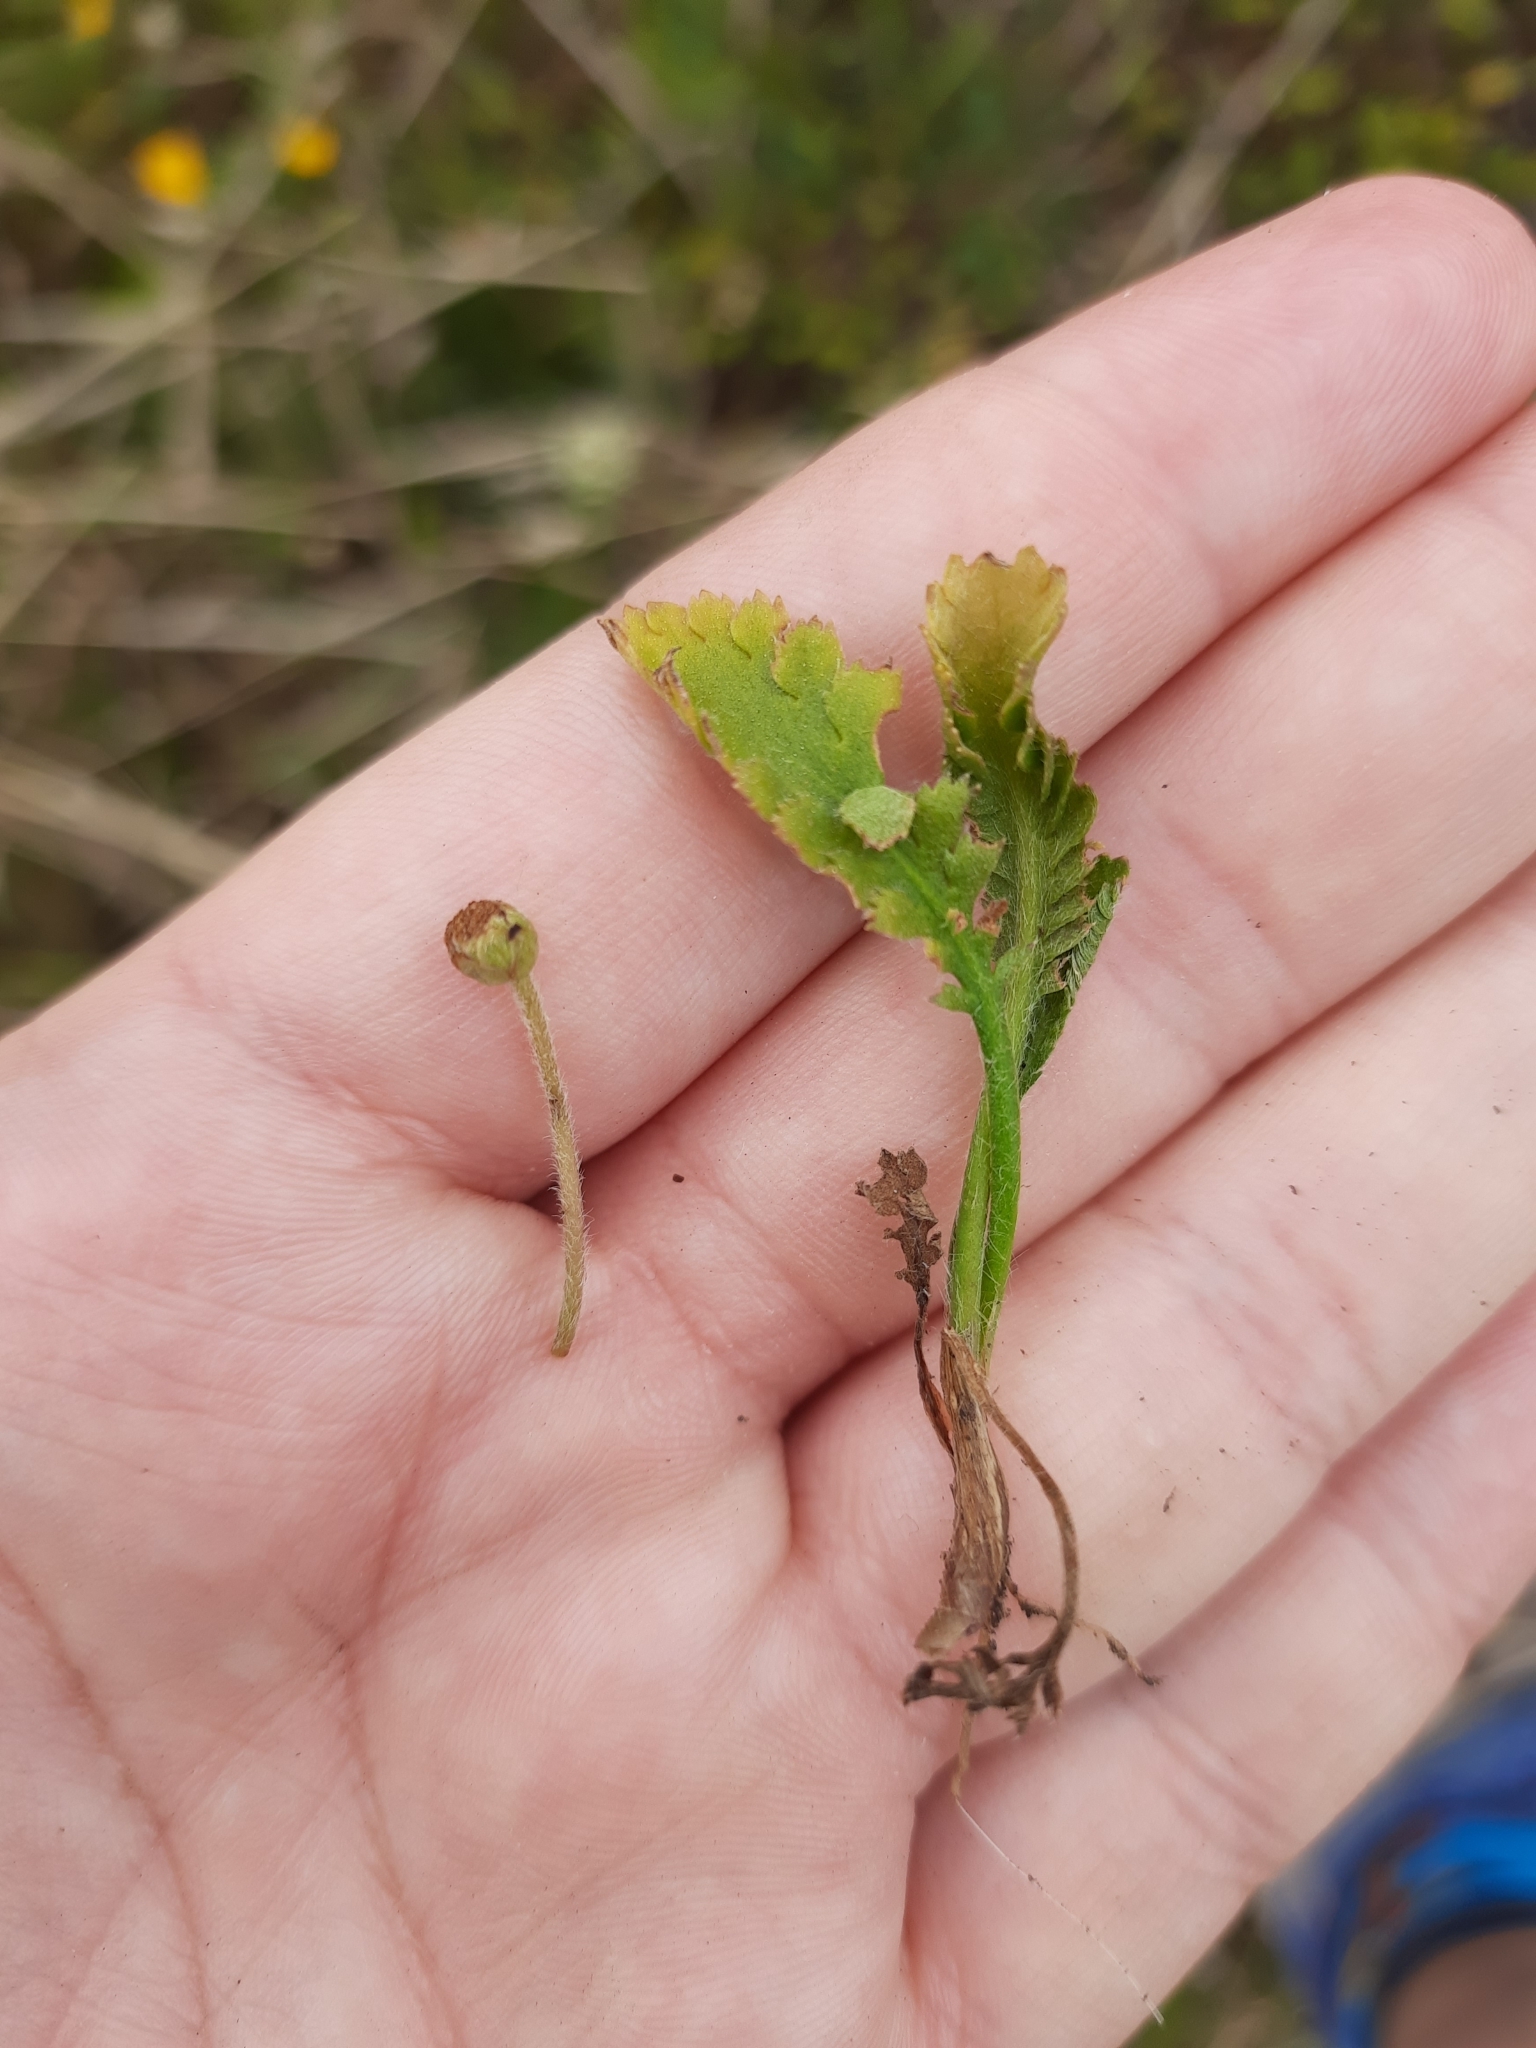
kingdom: Plantae
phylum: Tracheophyta
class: Magnoliopsida
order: Asterales
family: Asteraceae
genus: Leptinella
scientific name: Leptinella dioica
